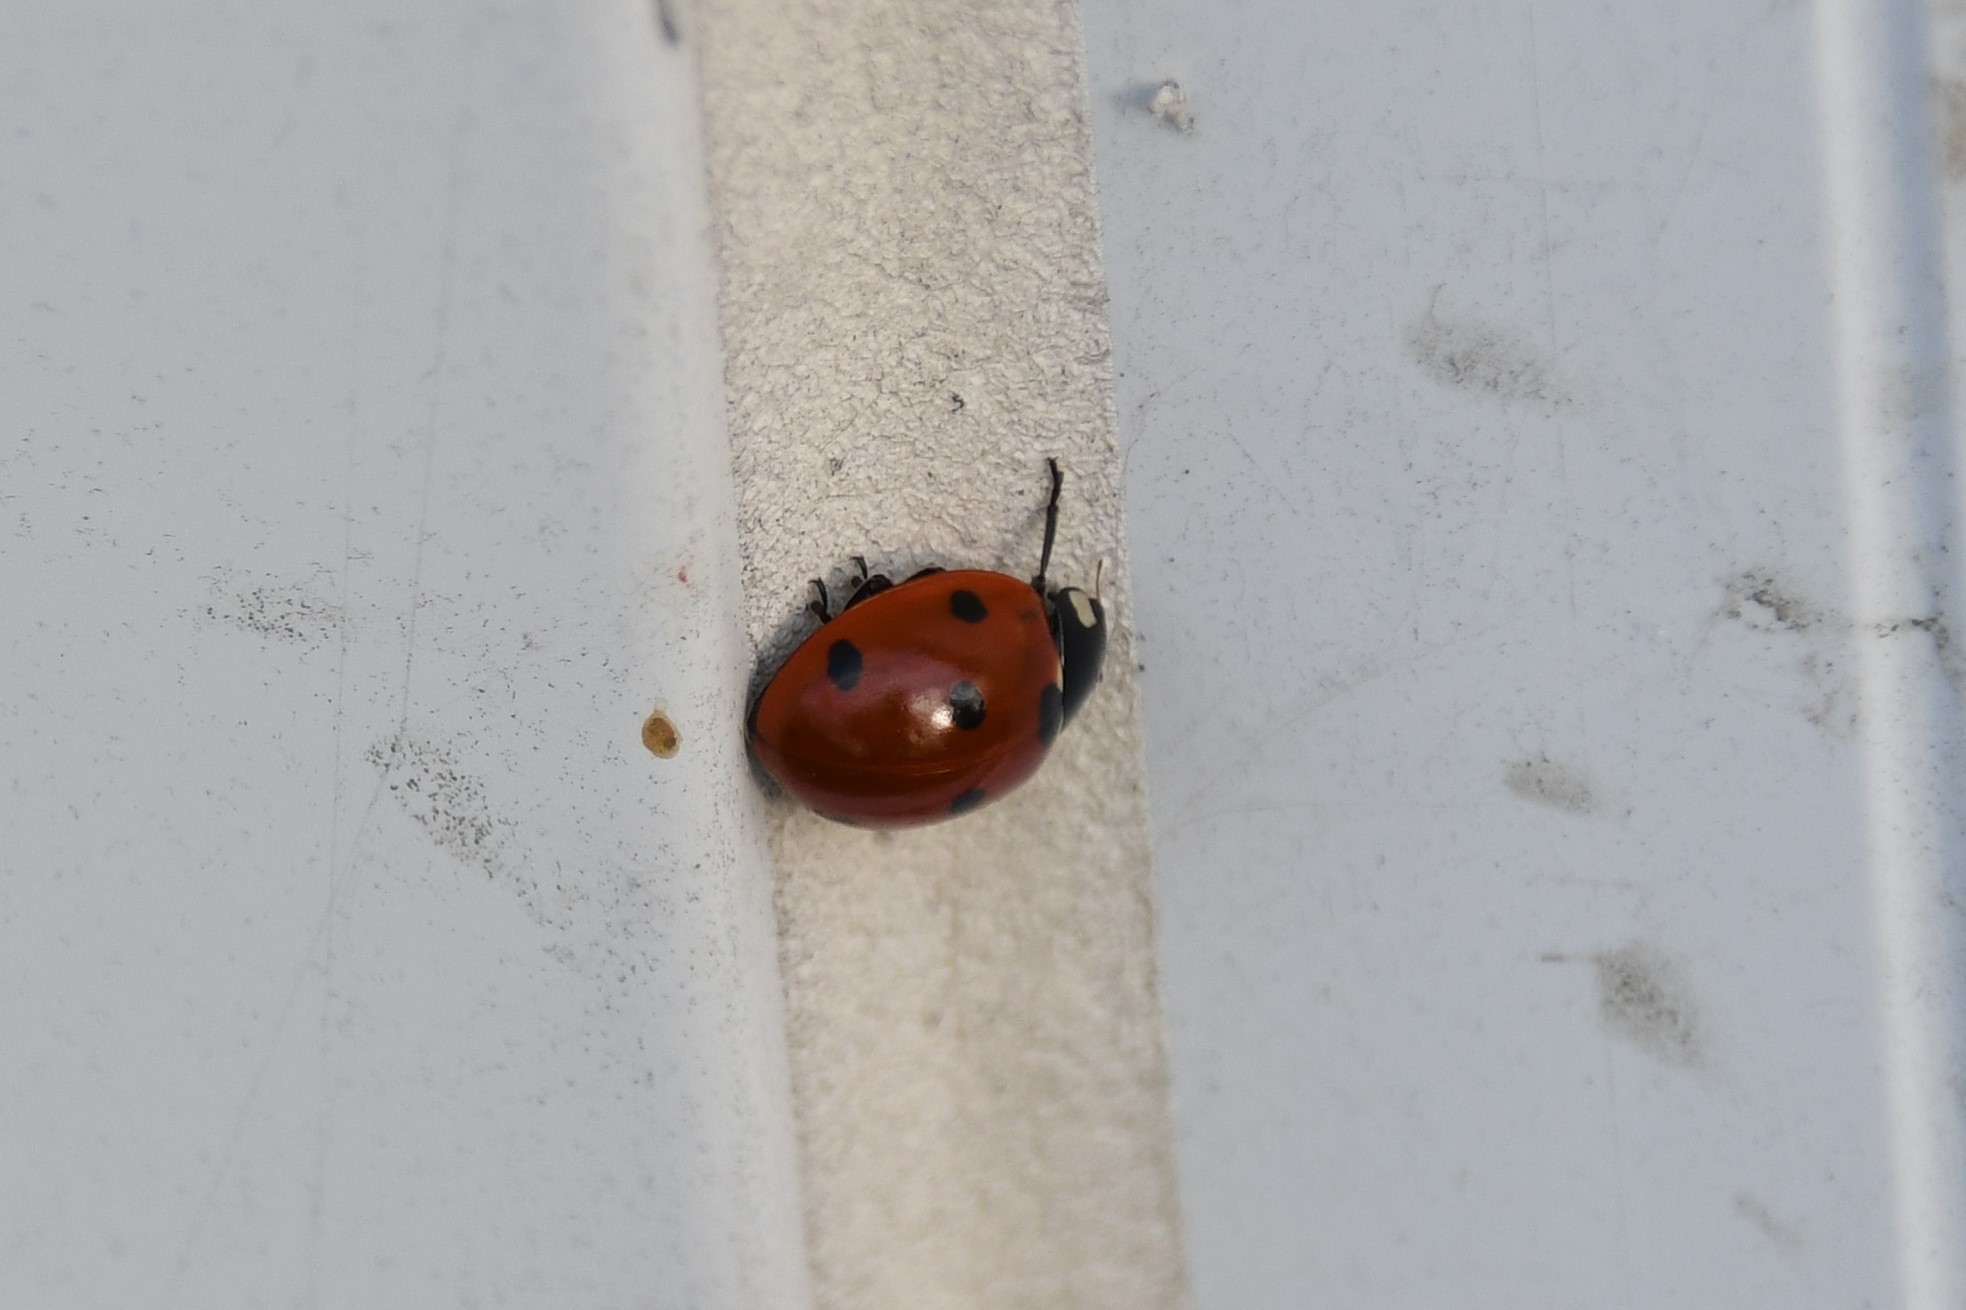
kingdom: Animalia
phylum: Arthropoda
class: Insecta
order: Coleoptera
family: Coccinellidae
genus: Coccinella
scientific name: Coccinella septempunctata
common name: Sevenspotted lady beetle
